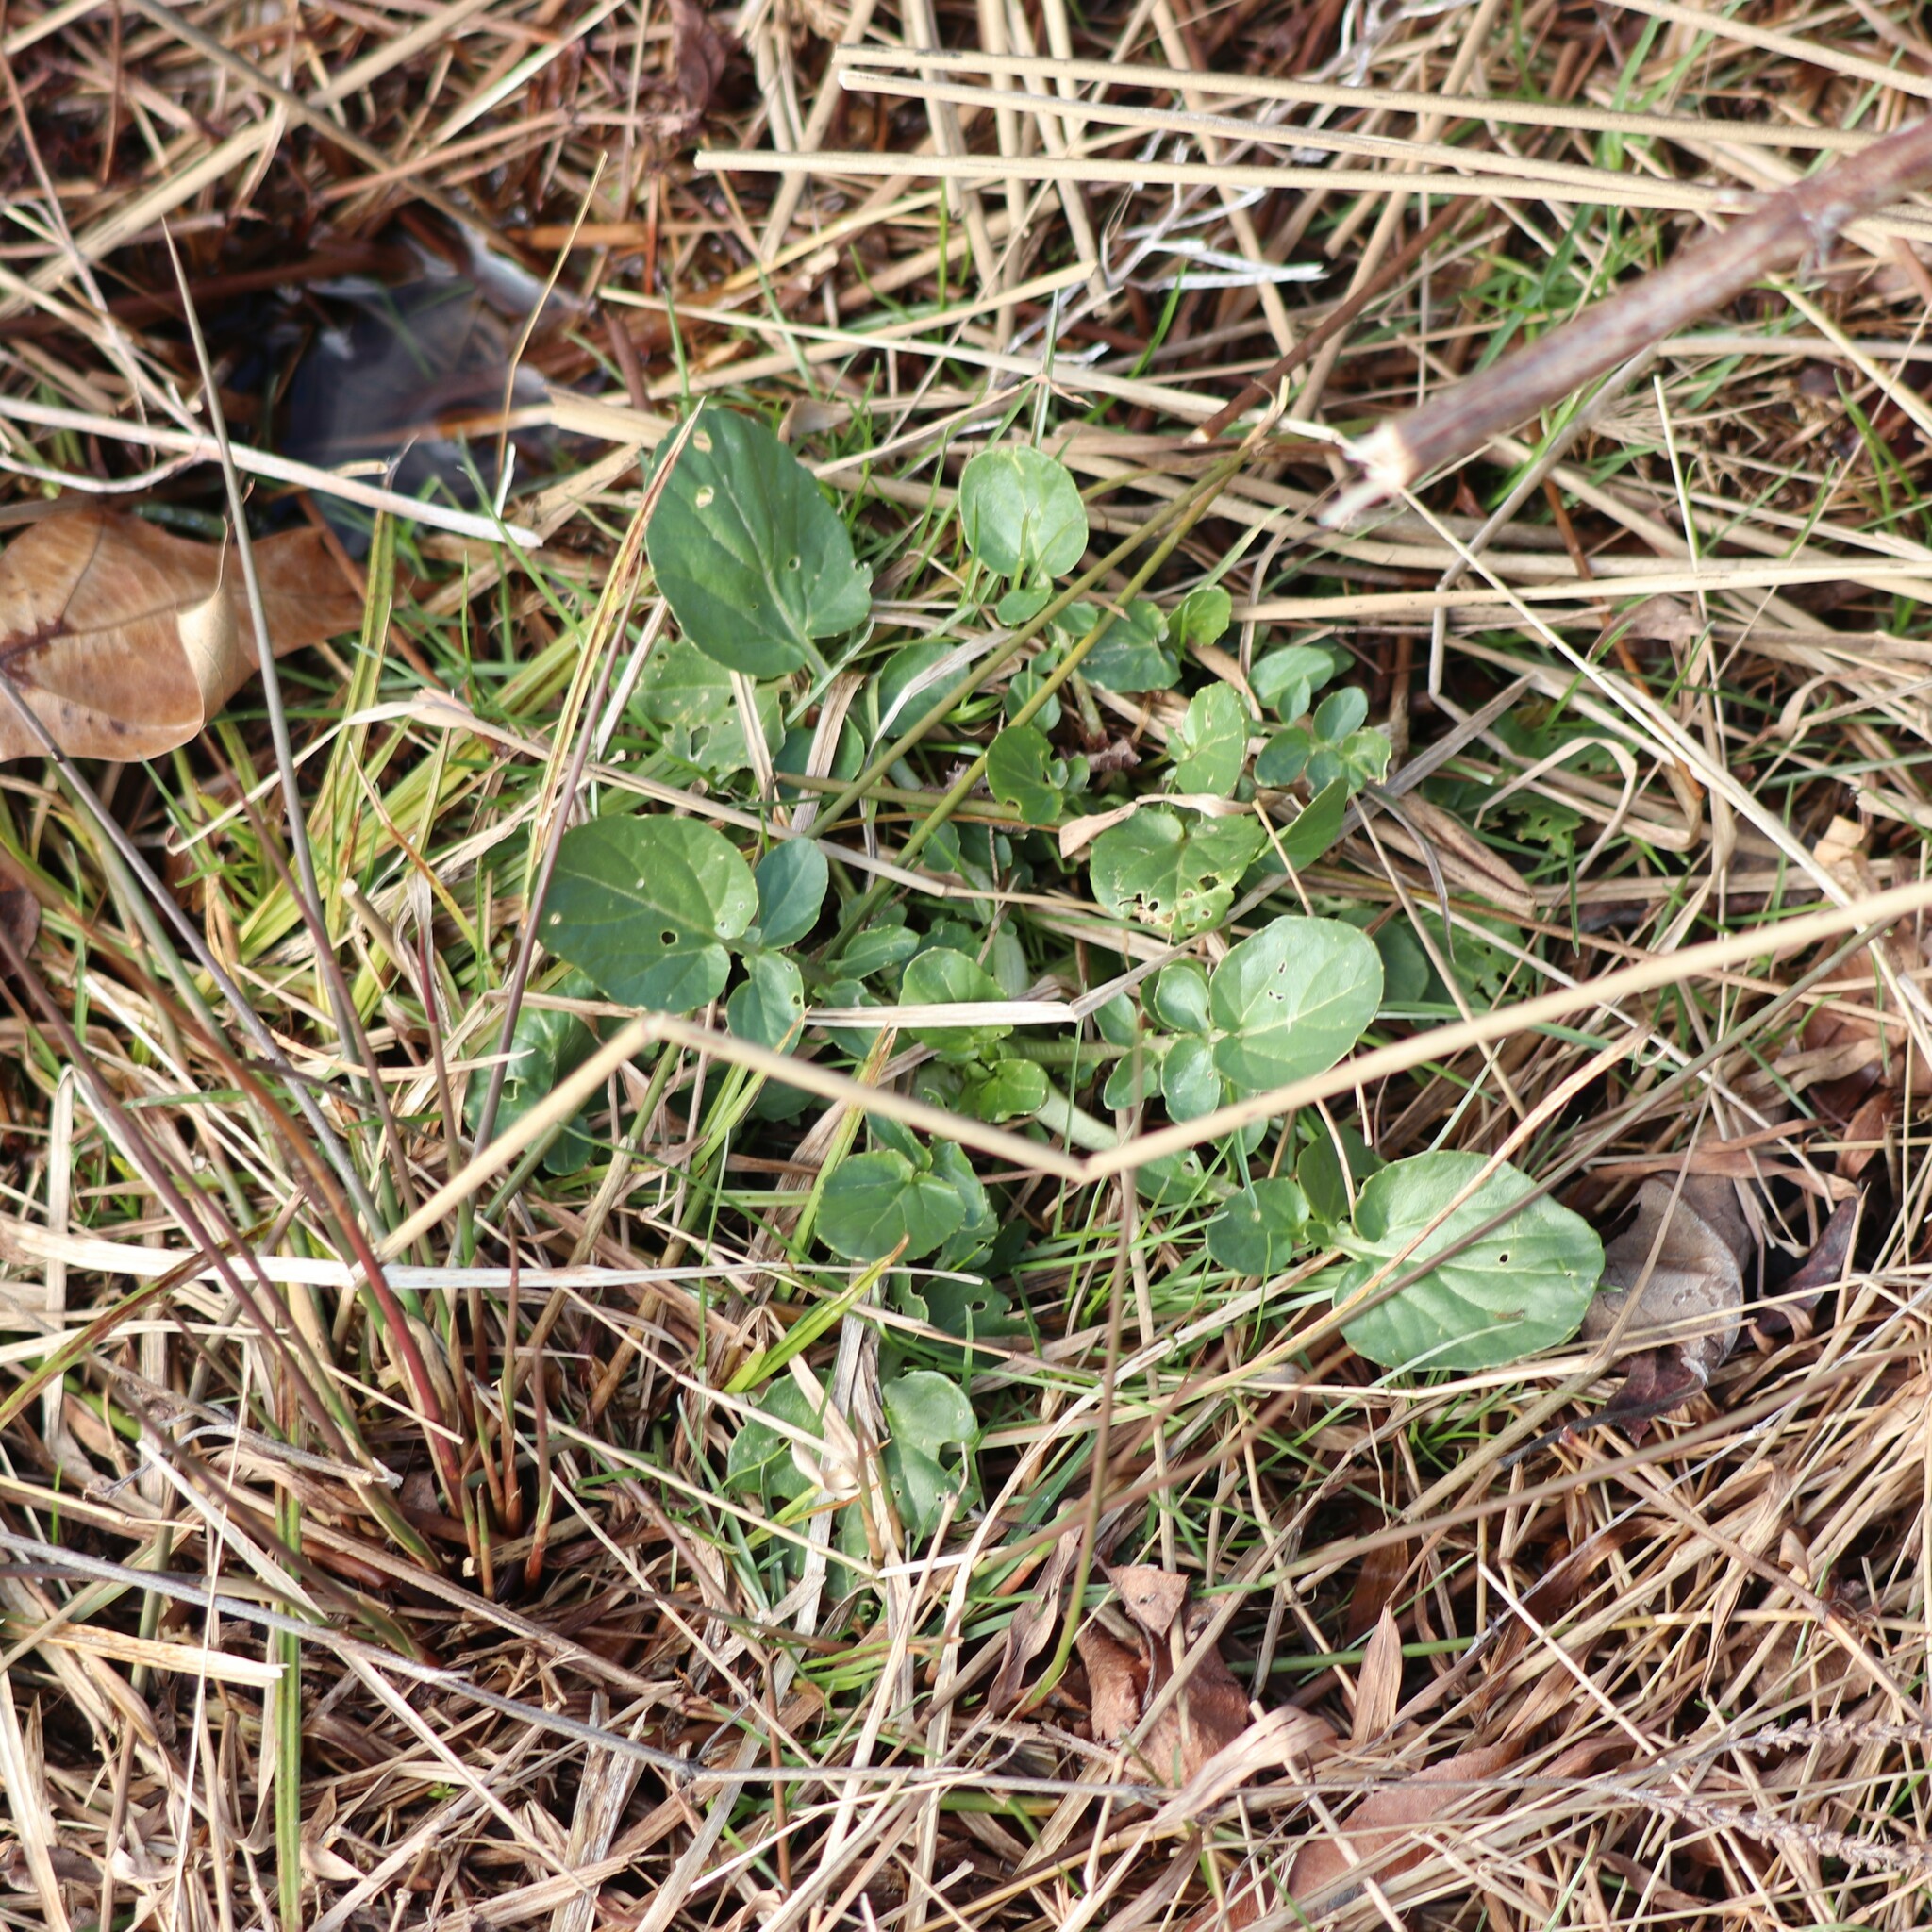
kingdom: Plantae
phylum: Tracheophyta
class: Magnoliopsida
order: Brassicales
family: Brassicaceae
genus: Barbarea
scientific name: Barbarea vulgaris
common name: Cressy-greens
